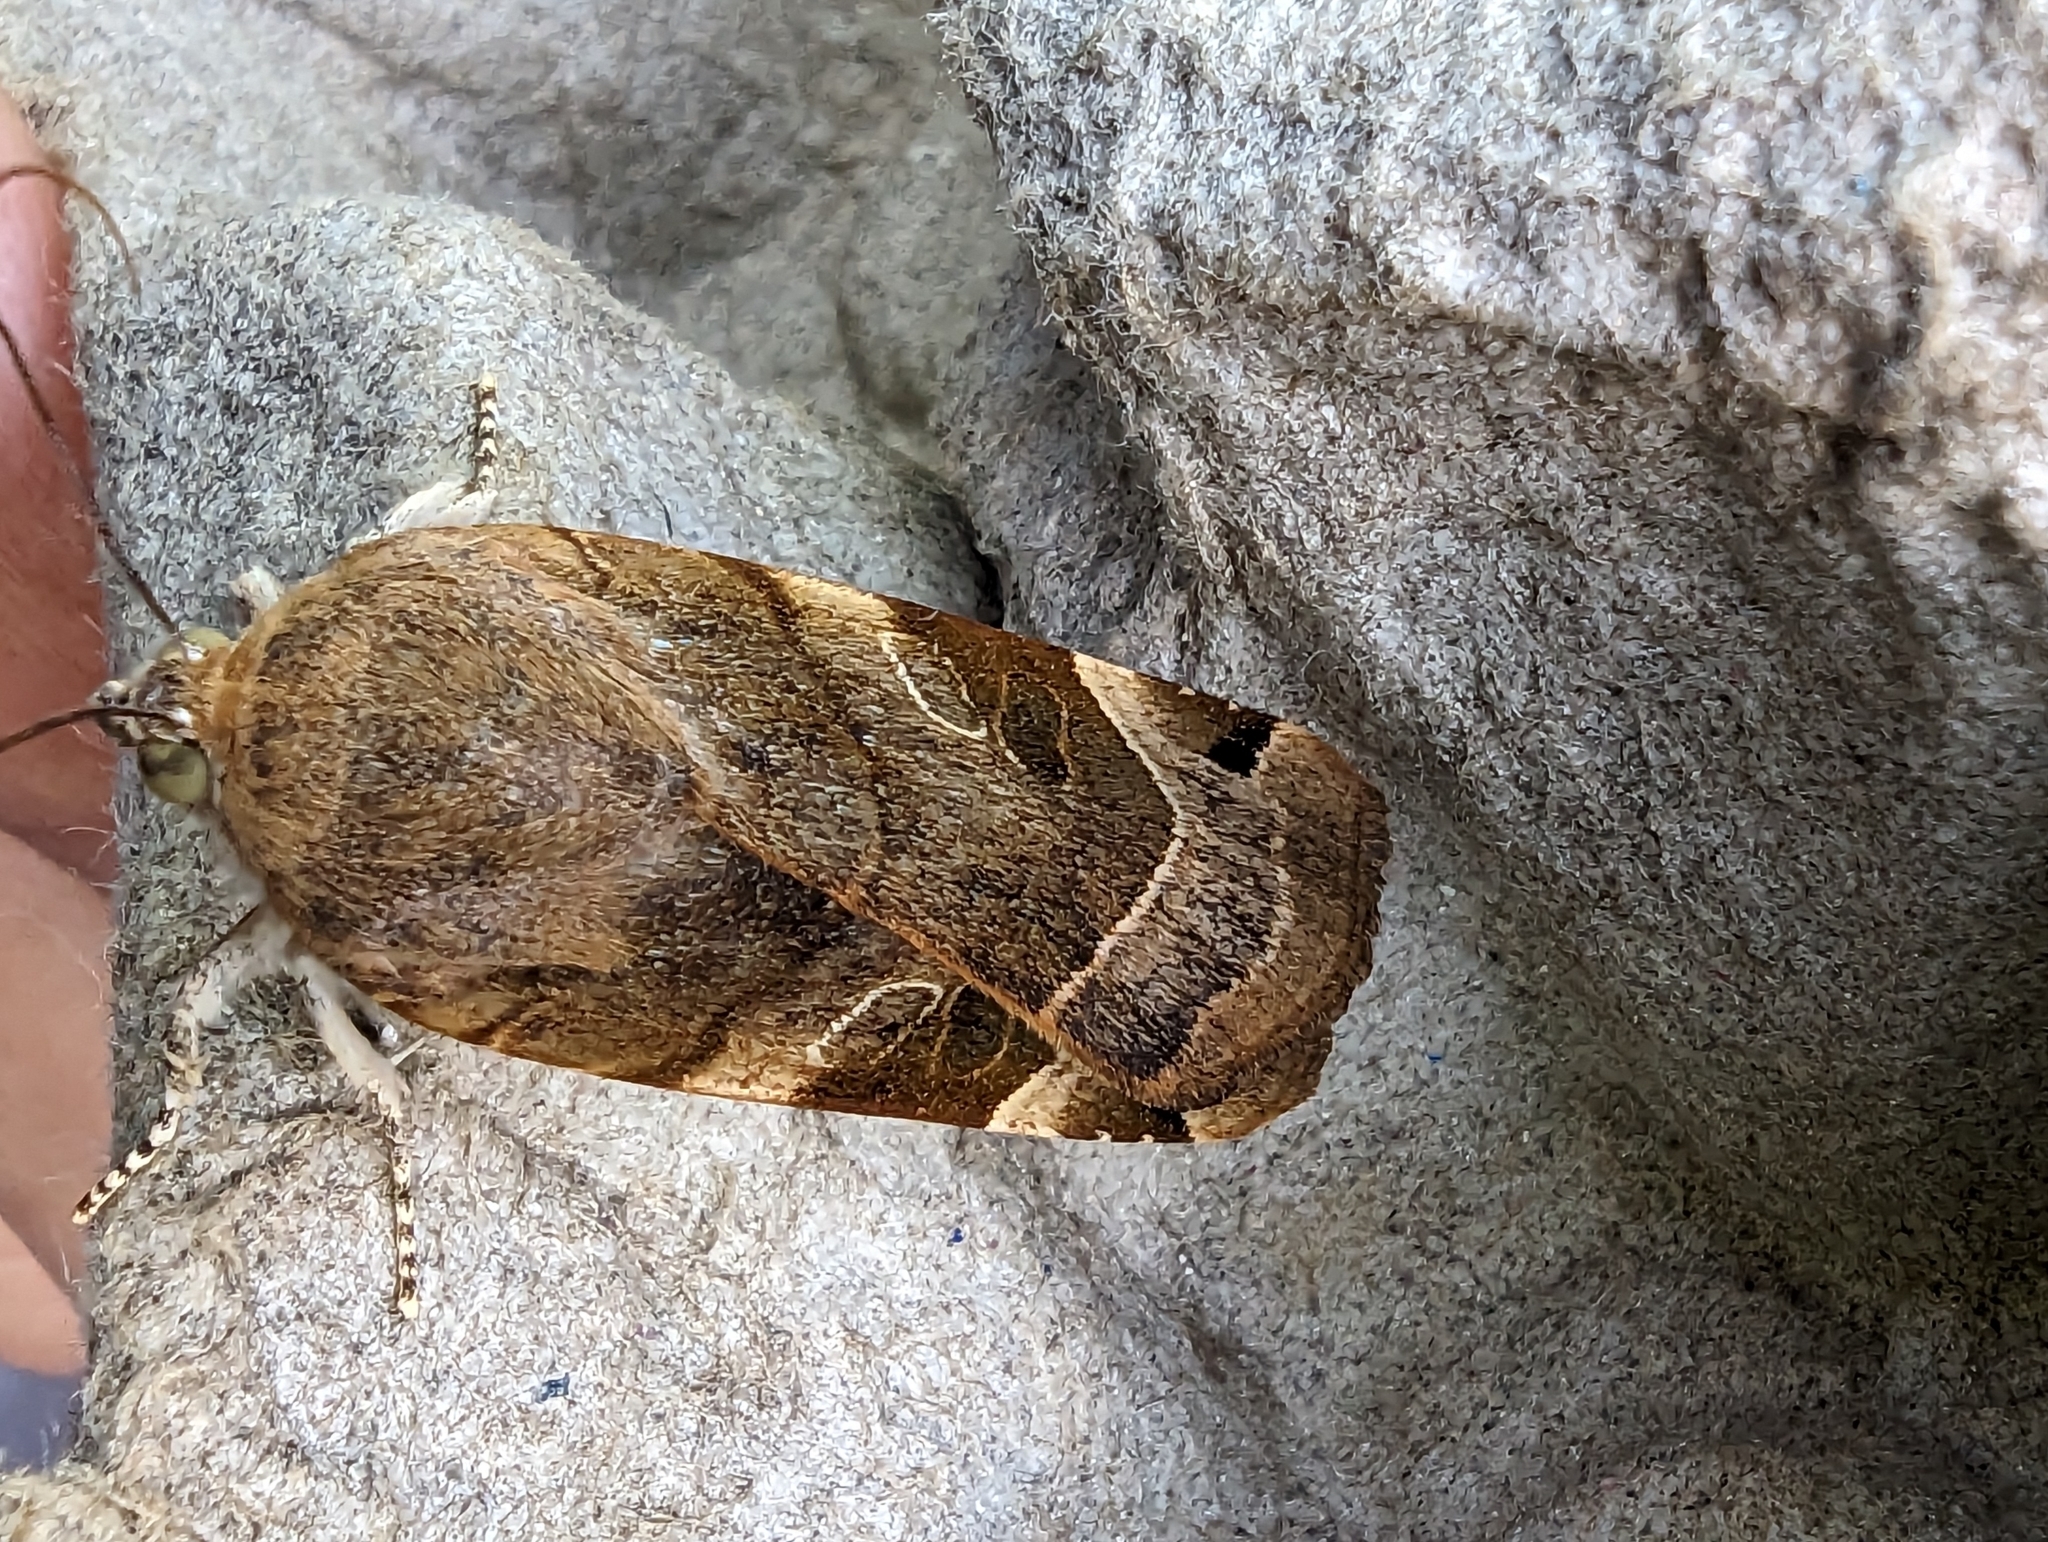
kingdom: Animalia
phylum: Arthropoda
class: Insecta
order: Lepidoptera
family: Noctuidae
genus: Noctua
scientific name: Noctua fimbriata
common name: Broad-bordered yellow underwing
